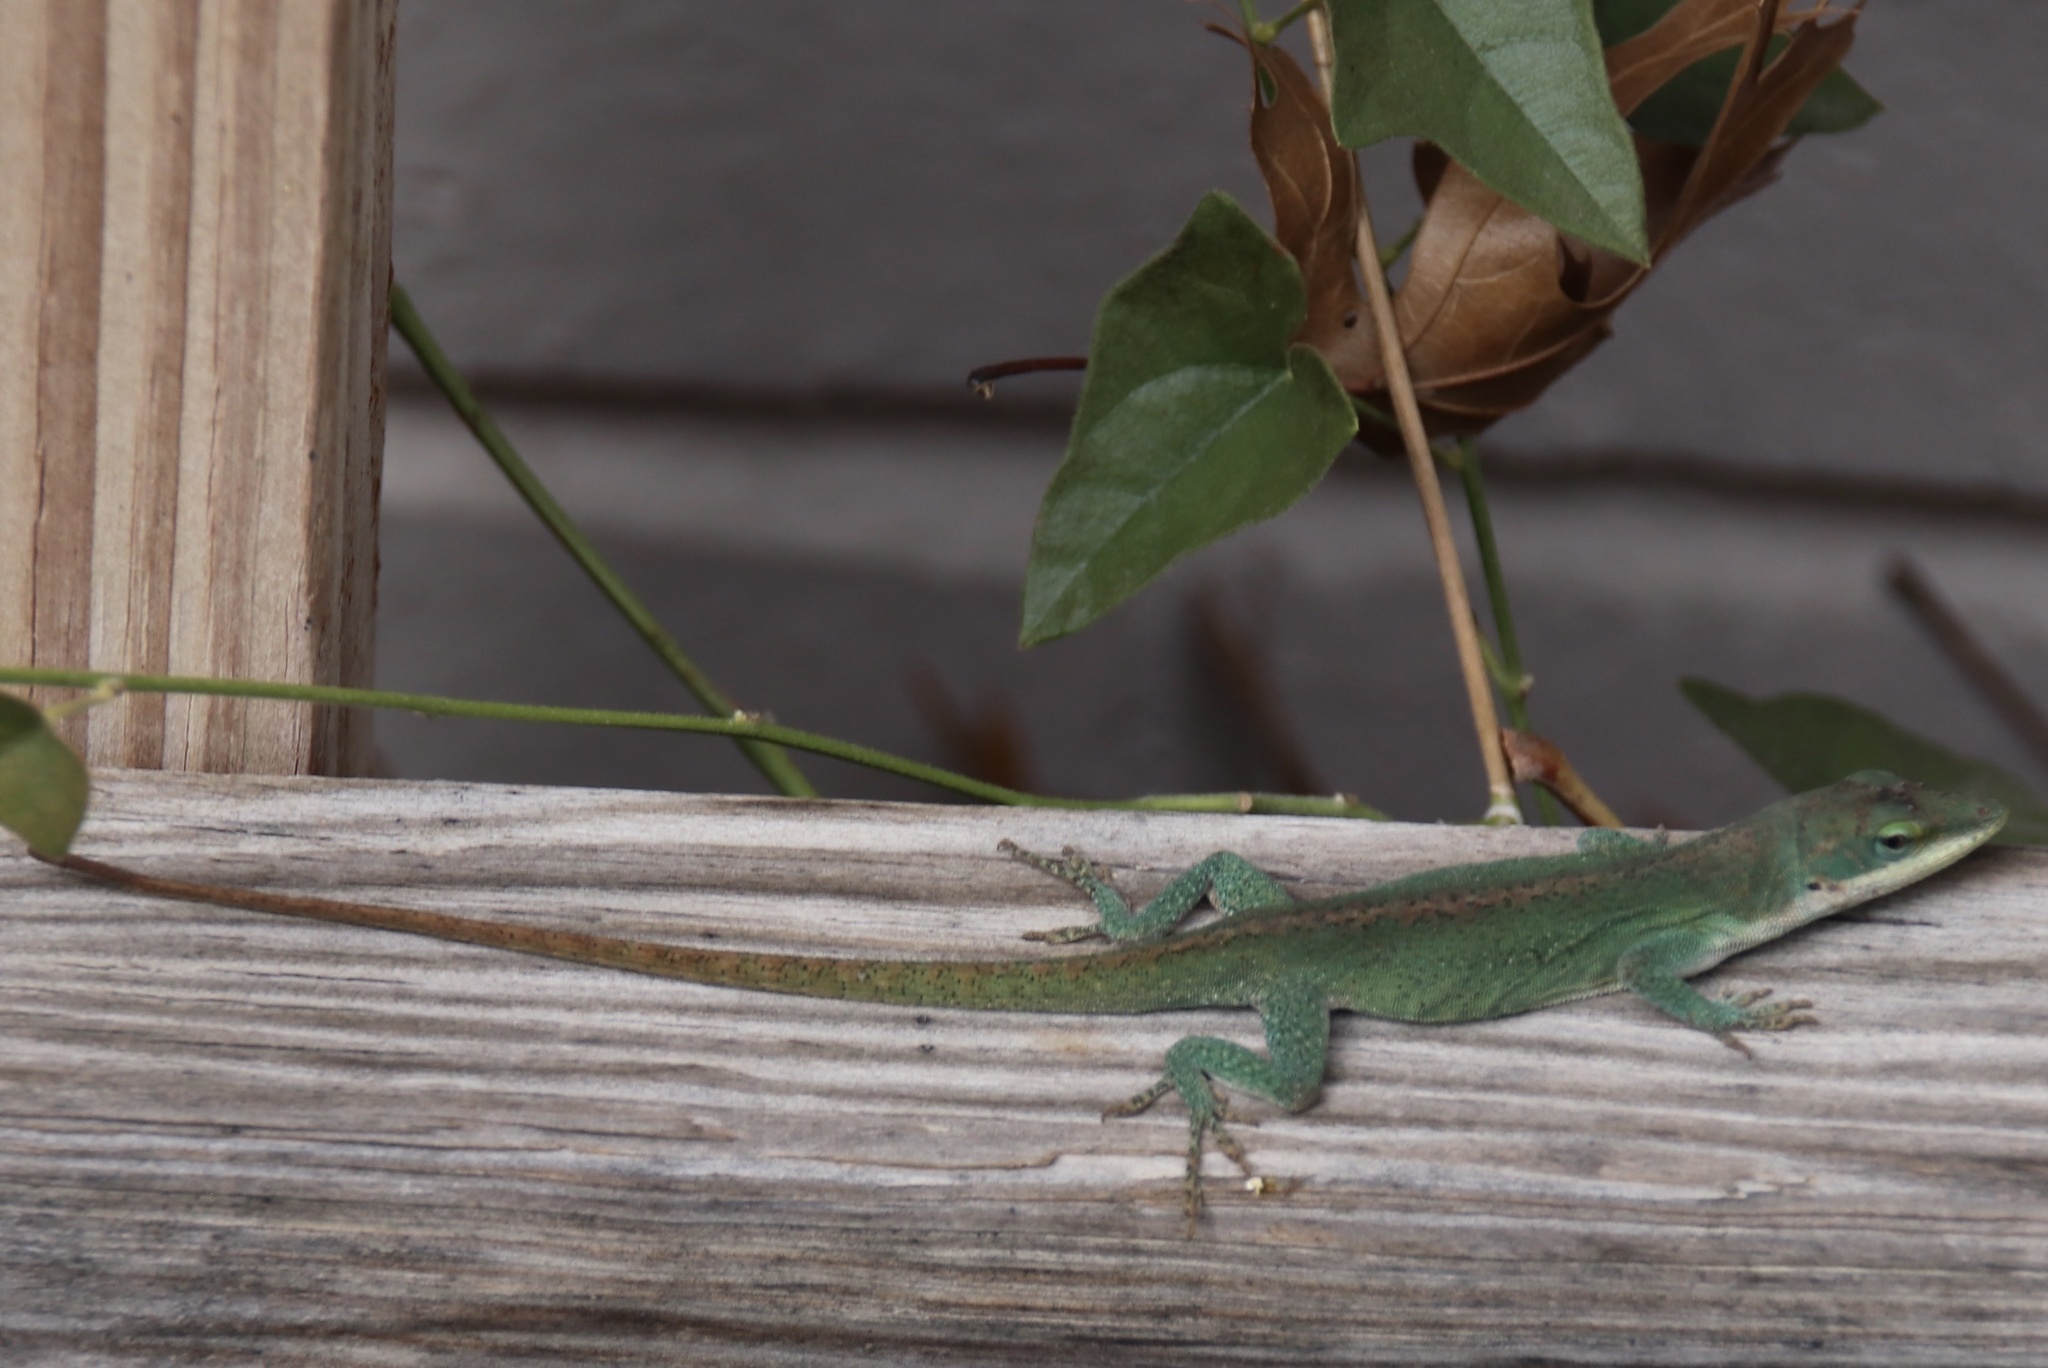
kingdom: Animalia
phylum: Chordata
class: Squamata
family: Dactyloidae
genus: Anolis
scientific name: Anolis carolinensis
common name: Green anole
